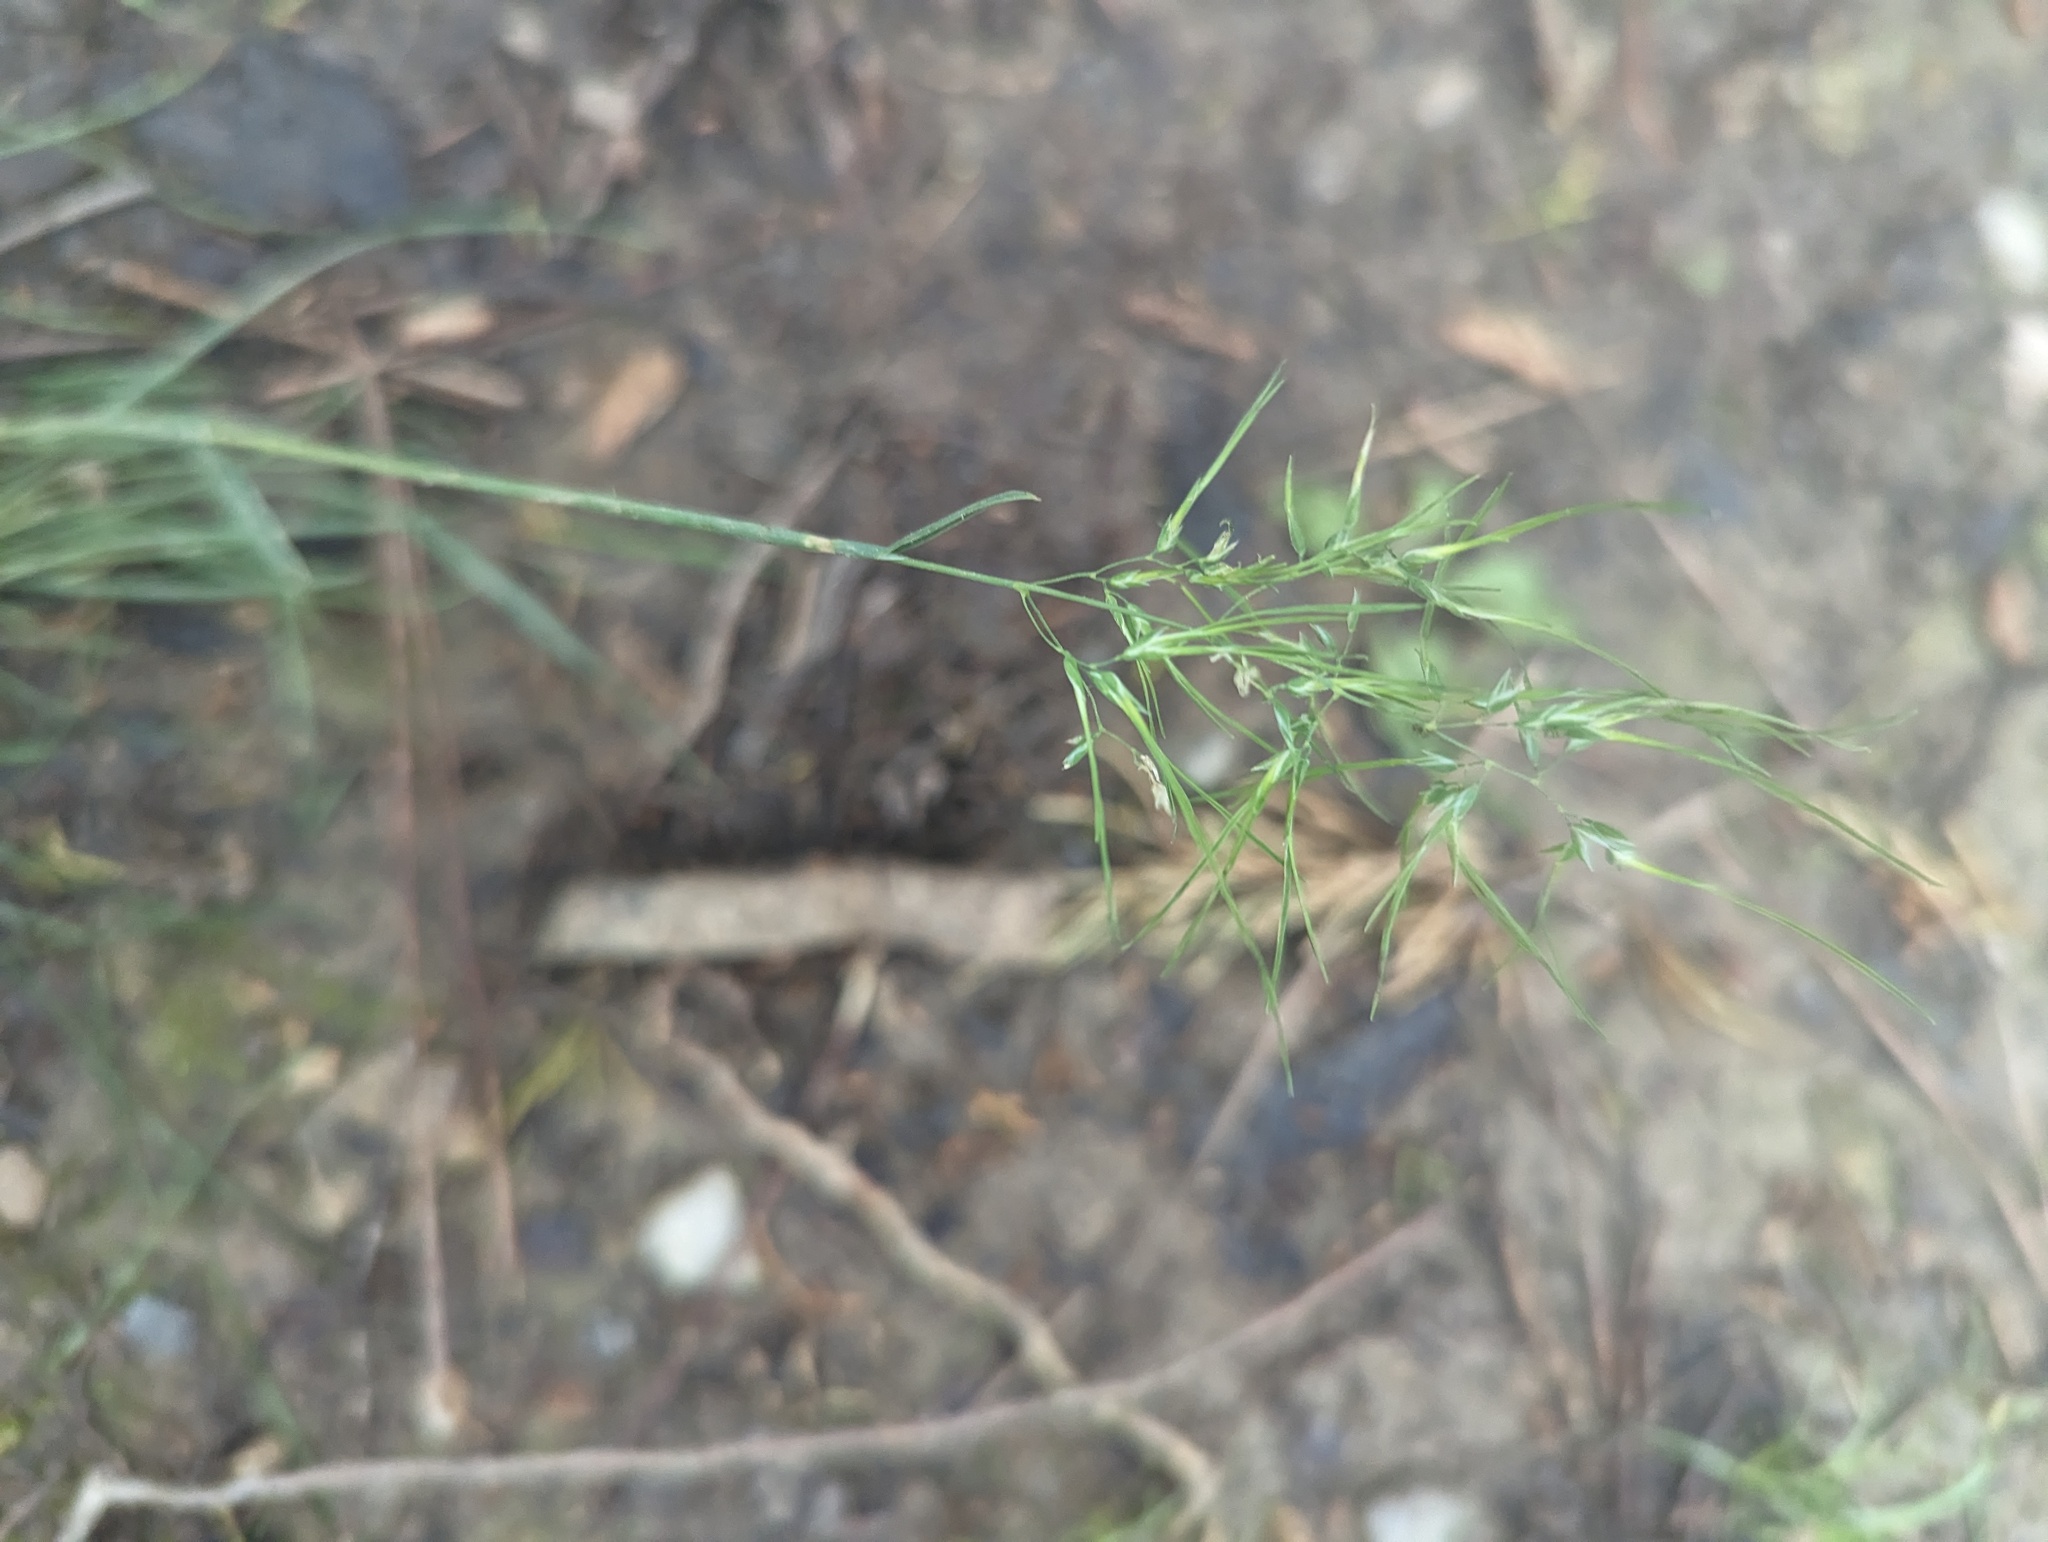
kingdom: Plantae
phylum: Tracheophyta
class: Liliopsida
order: Poales
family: Poaceae
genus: Poa
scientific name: Poa bulbosa
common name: Bulbous bluegrass
